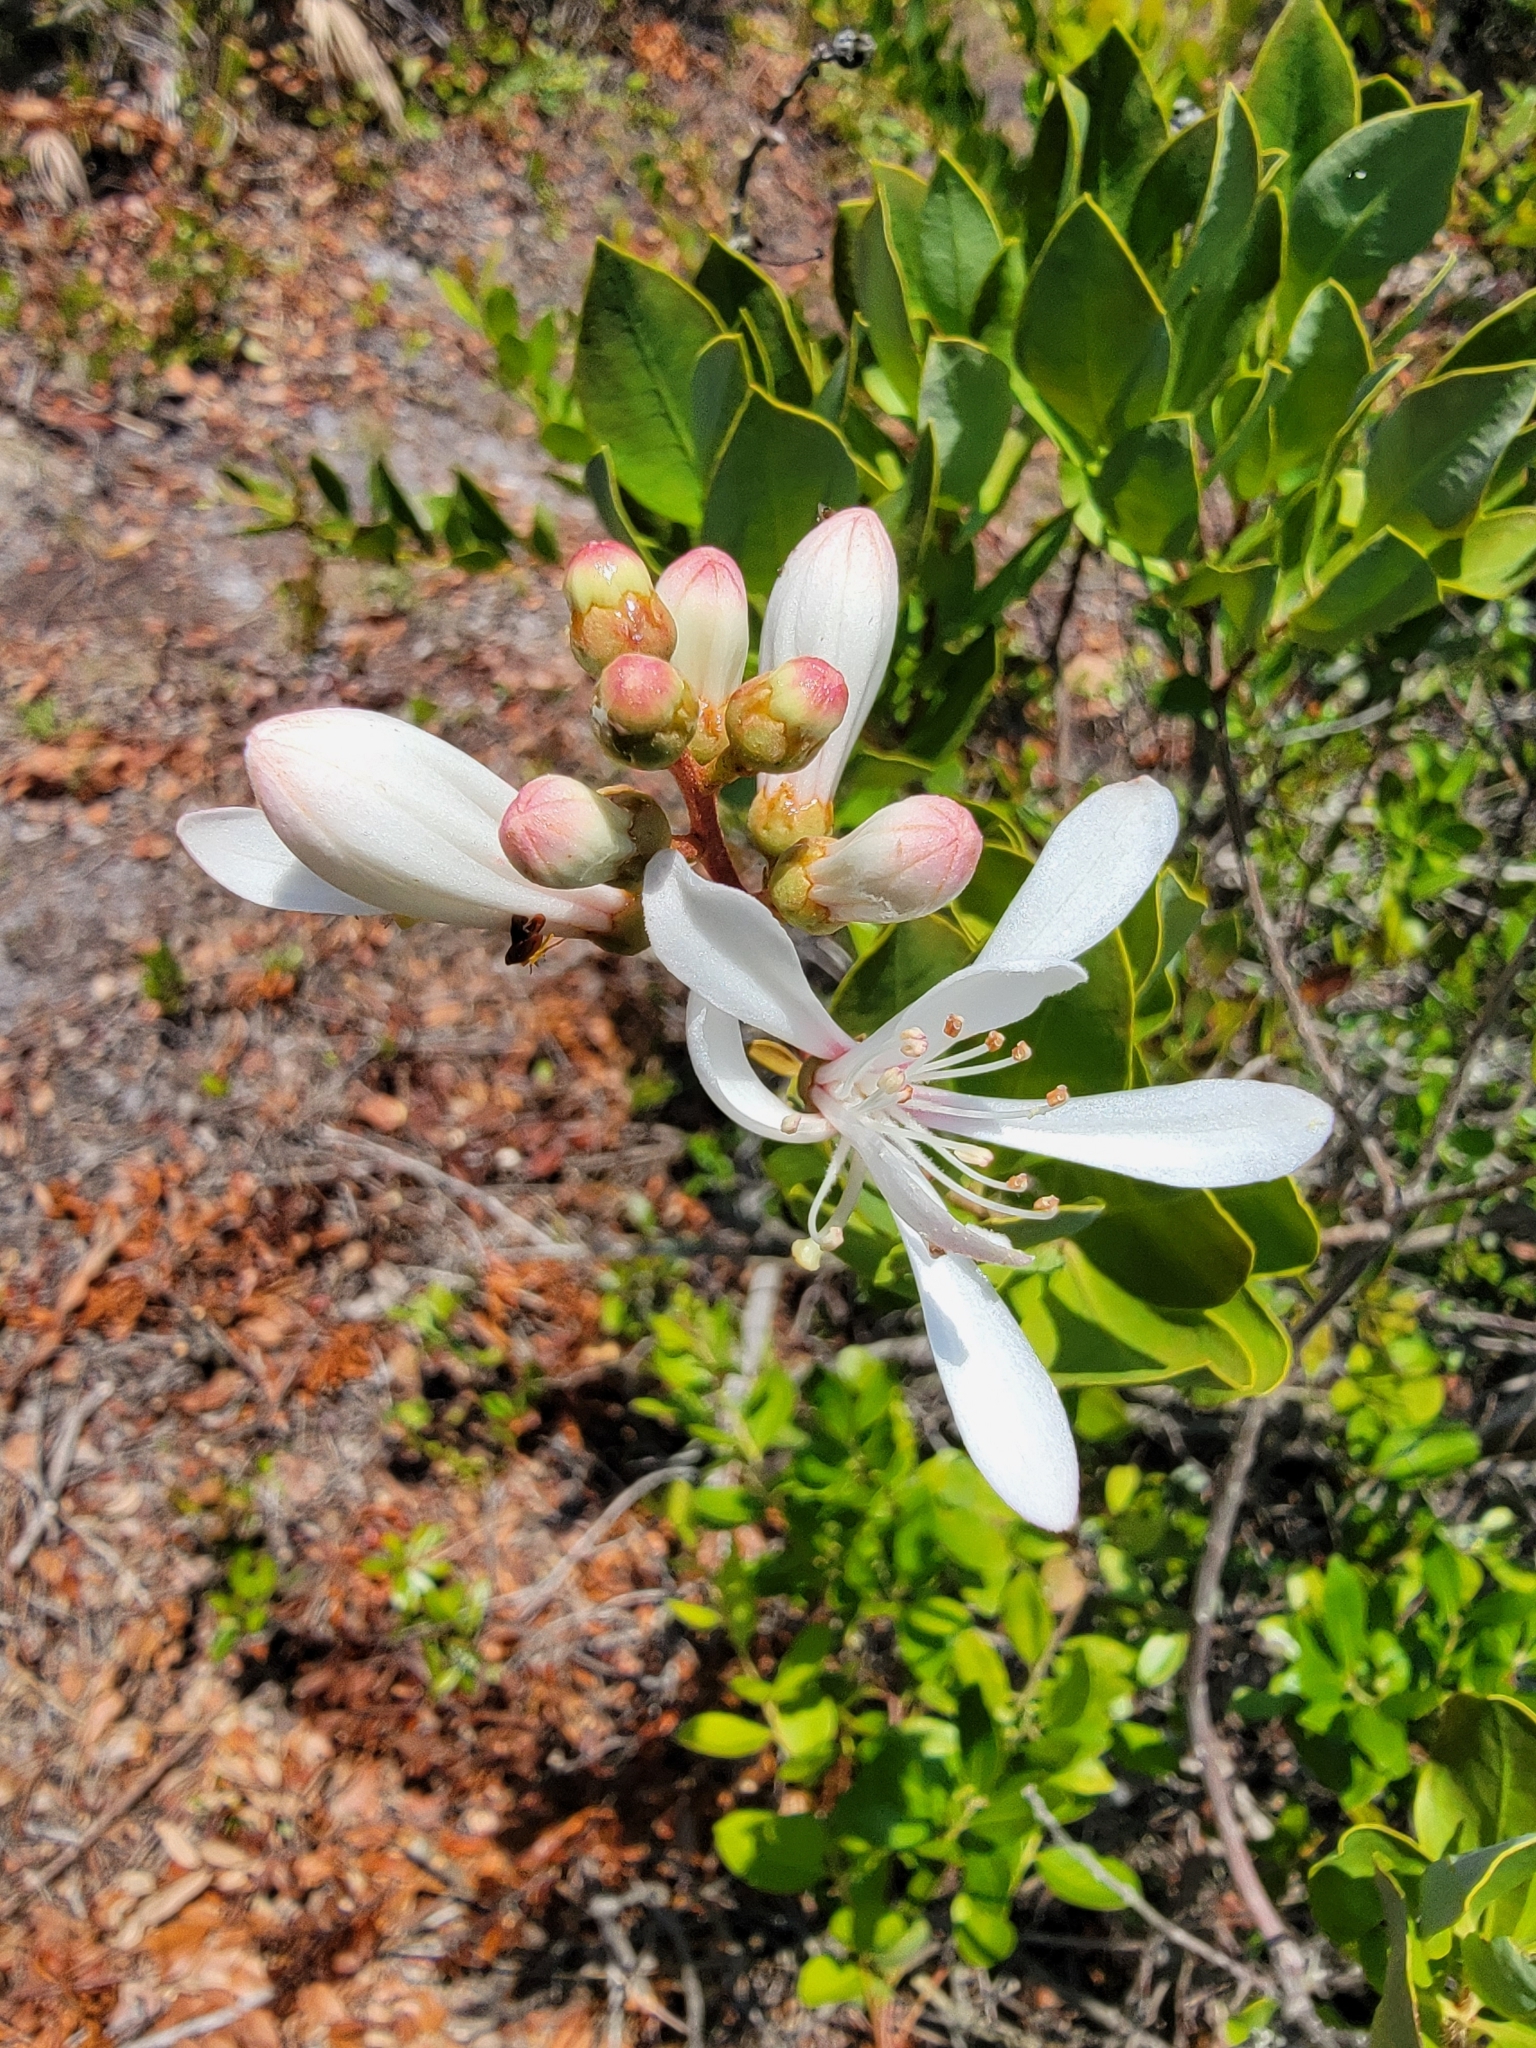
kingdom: Plantae
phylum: Tracheophyta
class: Magnoliopsida
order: Ericales
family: Ericaceae
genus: Bejaria
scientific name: Bejaria racemosa
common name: Tarflower
